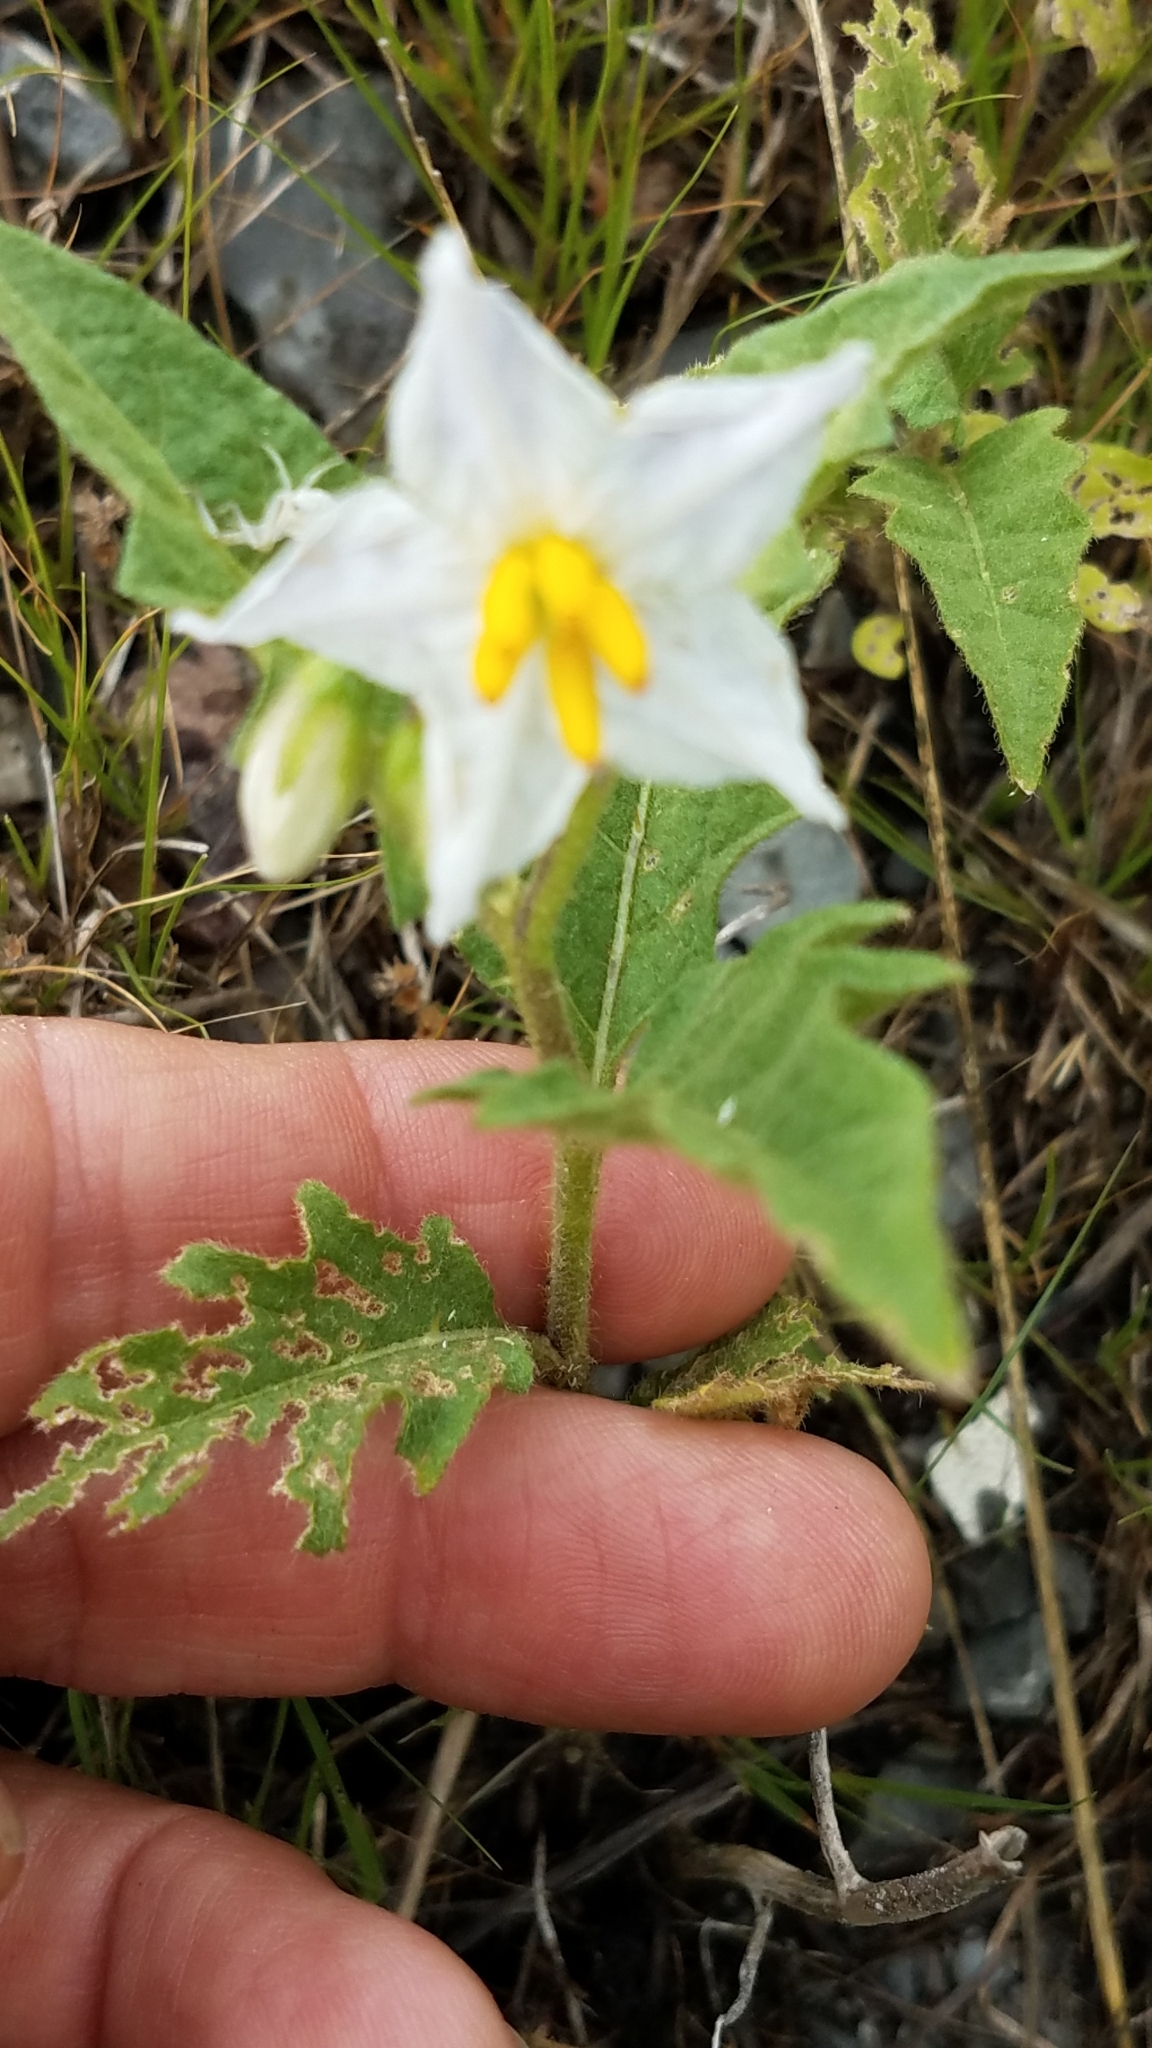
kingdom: Plantae
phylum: Tracheophyta
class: Magnoliopsida
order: Solanales
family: Solanaceae
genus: Solanum
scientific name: Solanum carolinense
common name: Horse-nettle
